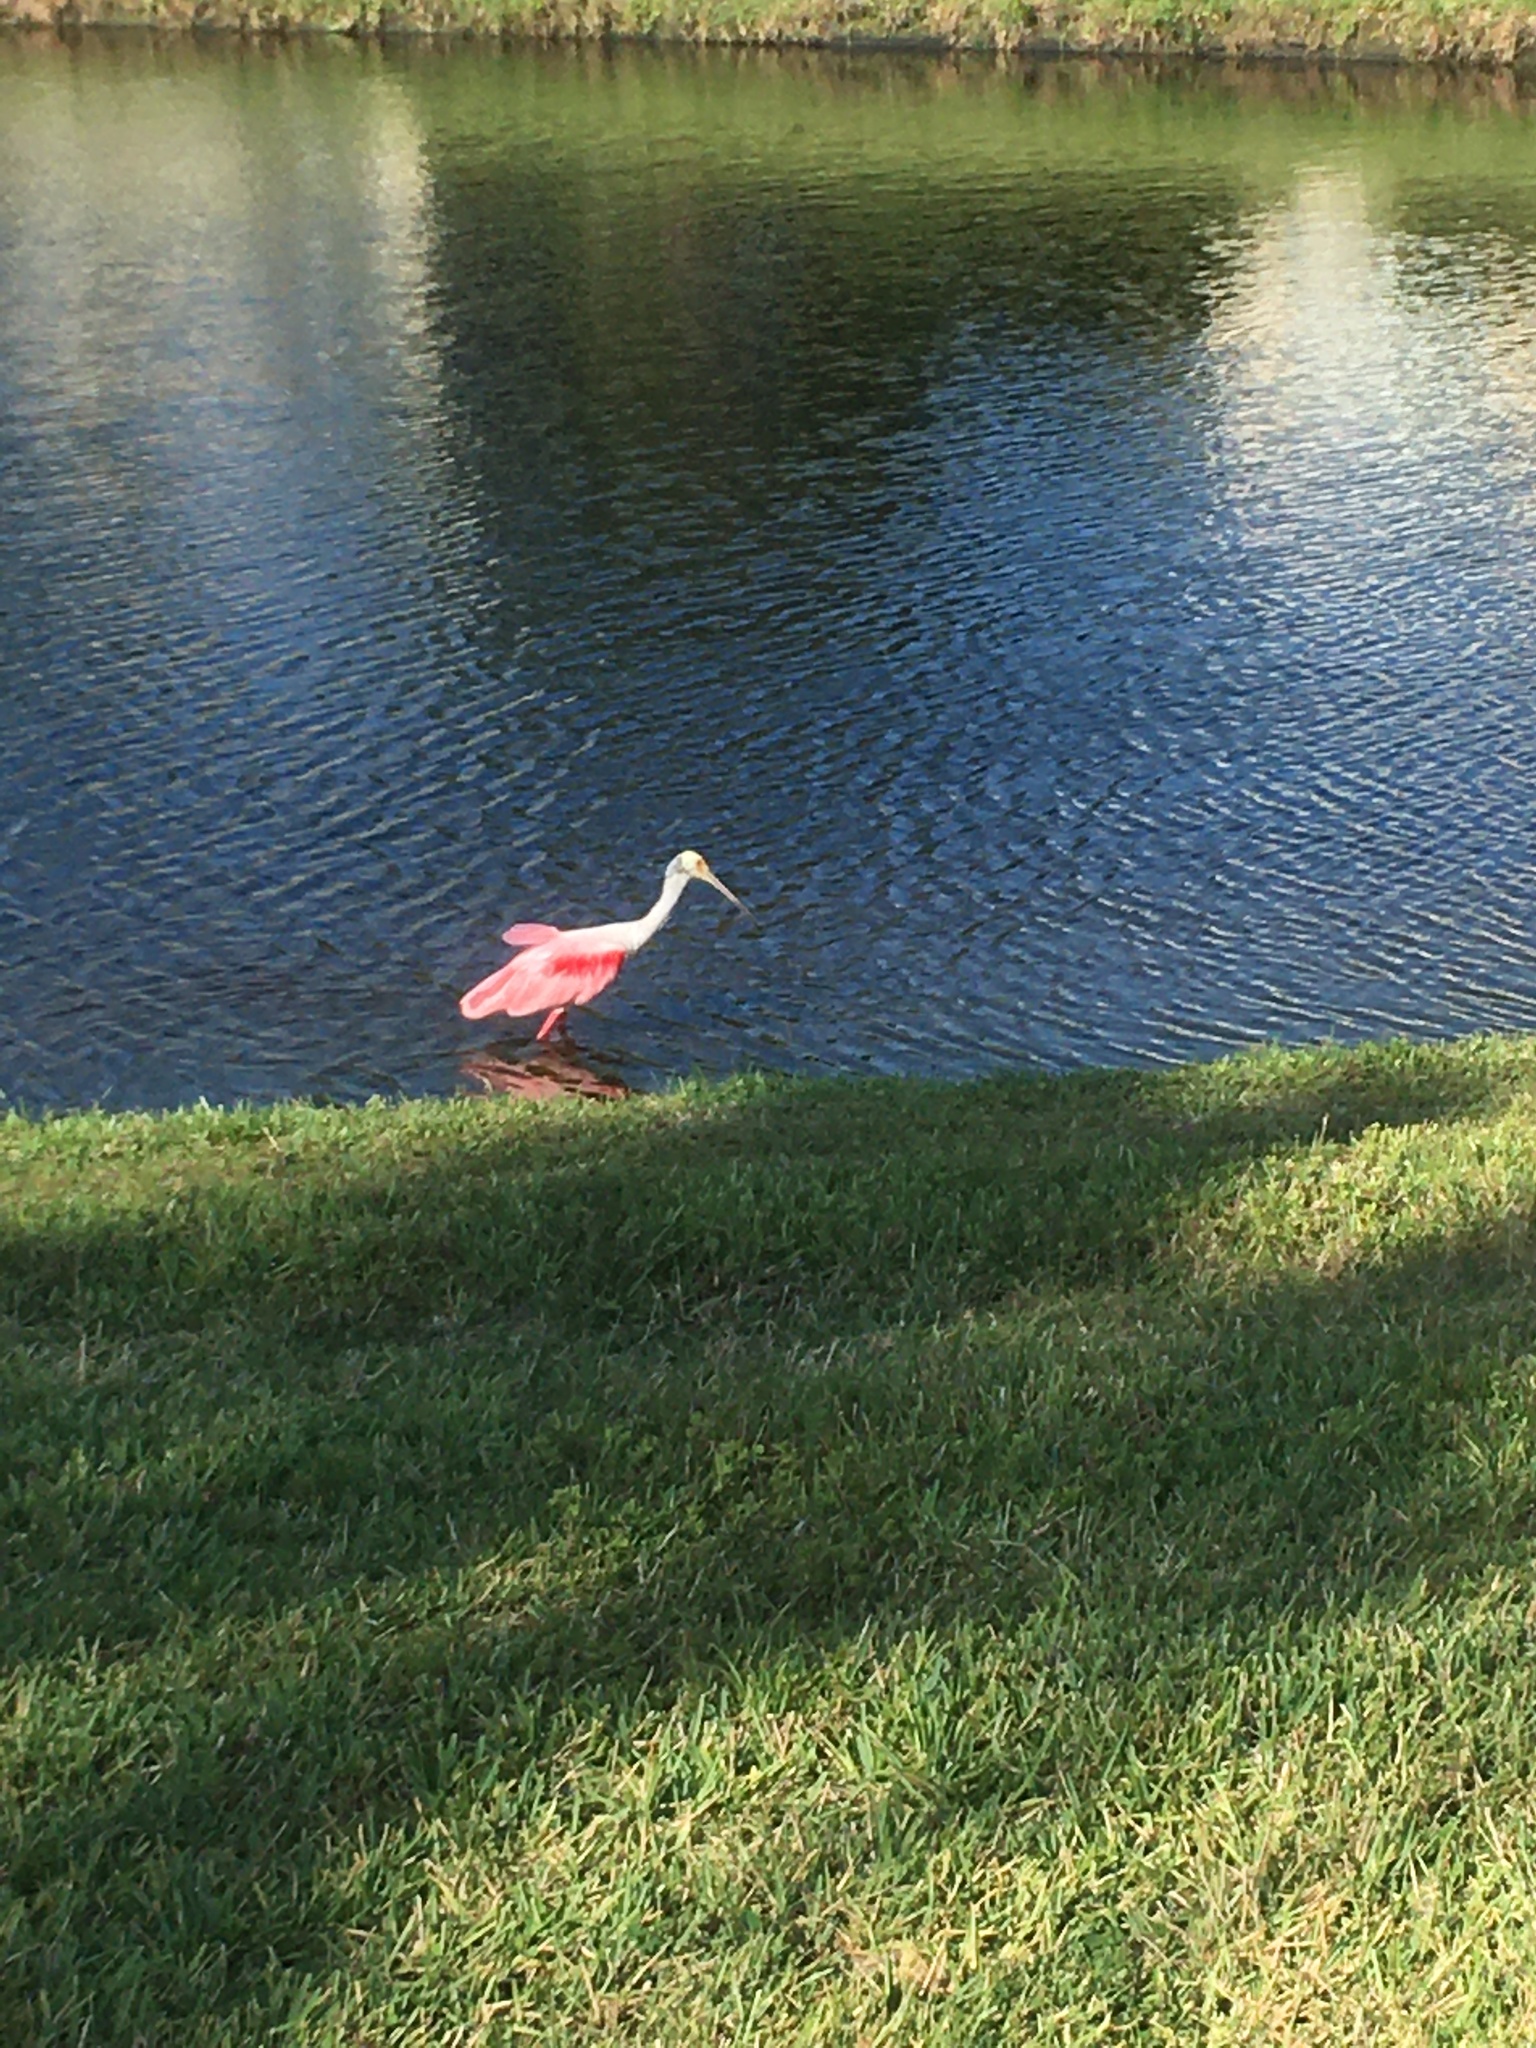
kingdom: Animalia
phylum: Chordata
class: Aves
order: Pelecaniformes
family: Threskiornithidae
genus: Platalea
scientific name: Platalea ajaja
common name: Roseate spoonbill
